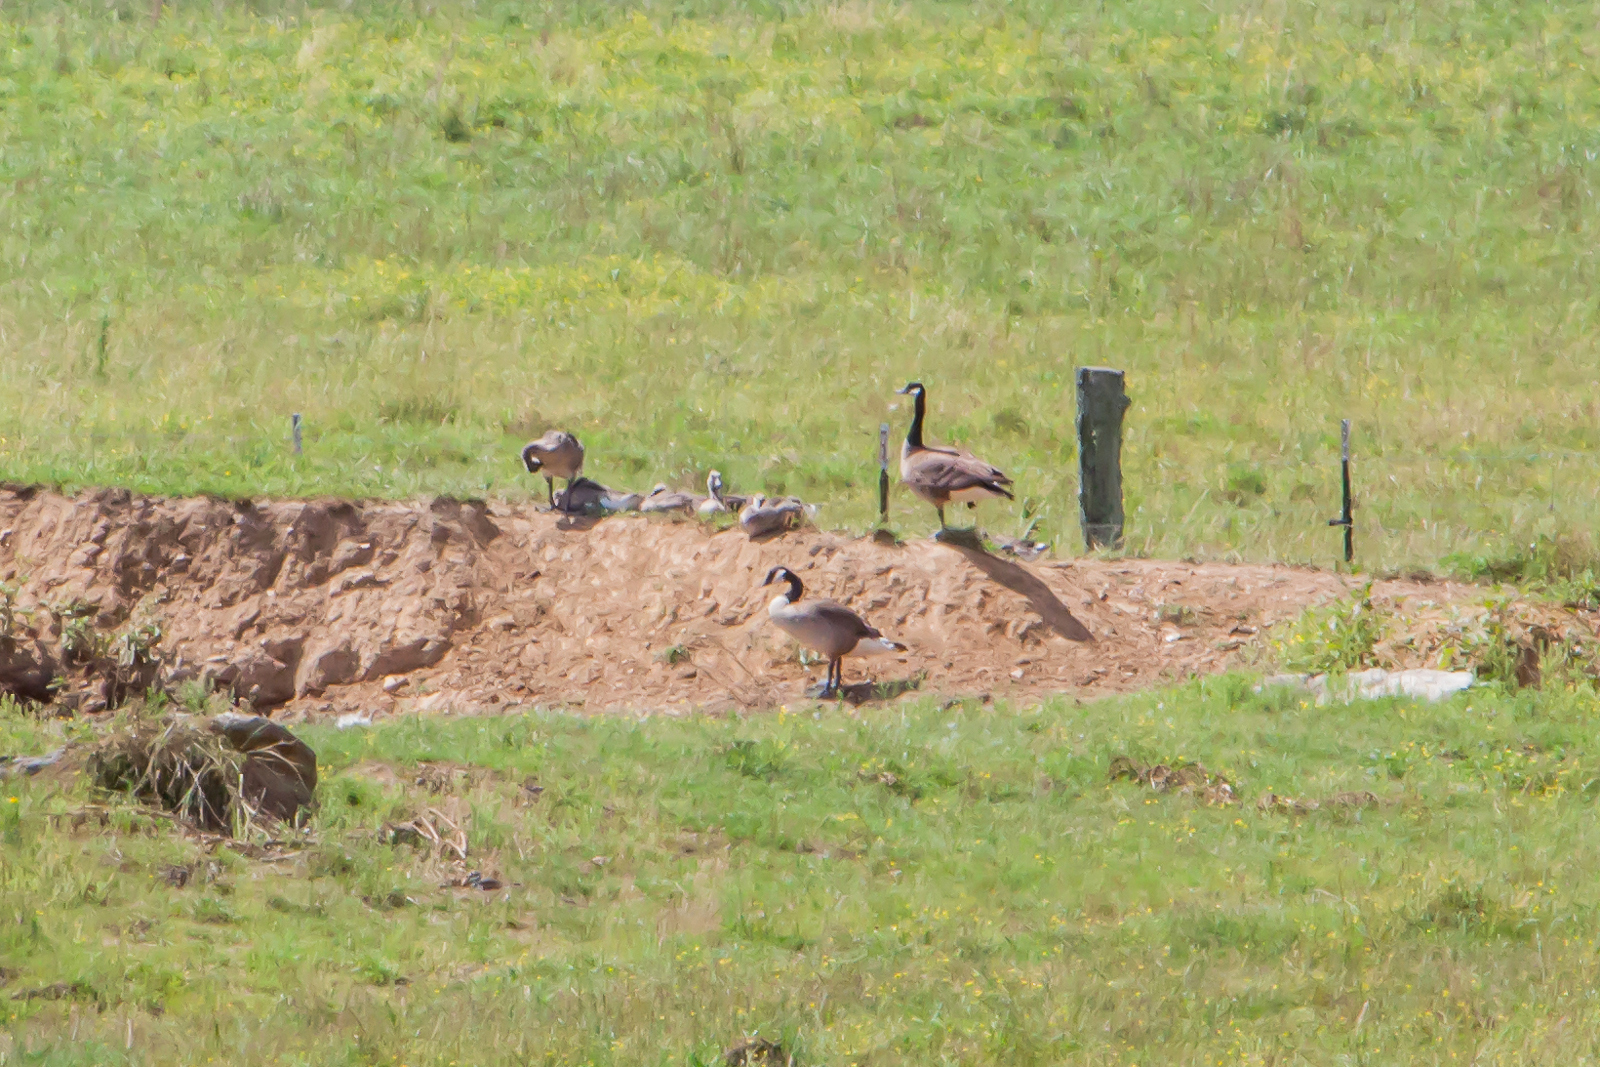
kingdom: Animalia
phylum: Chordata
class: Aves
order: Anseriformes
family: Anatidae
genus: Branta
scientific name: Branta canadensis
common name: Canada goose
